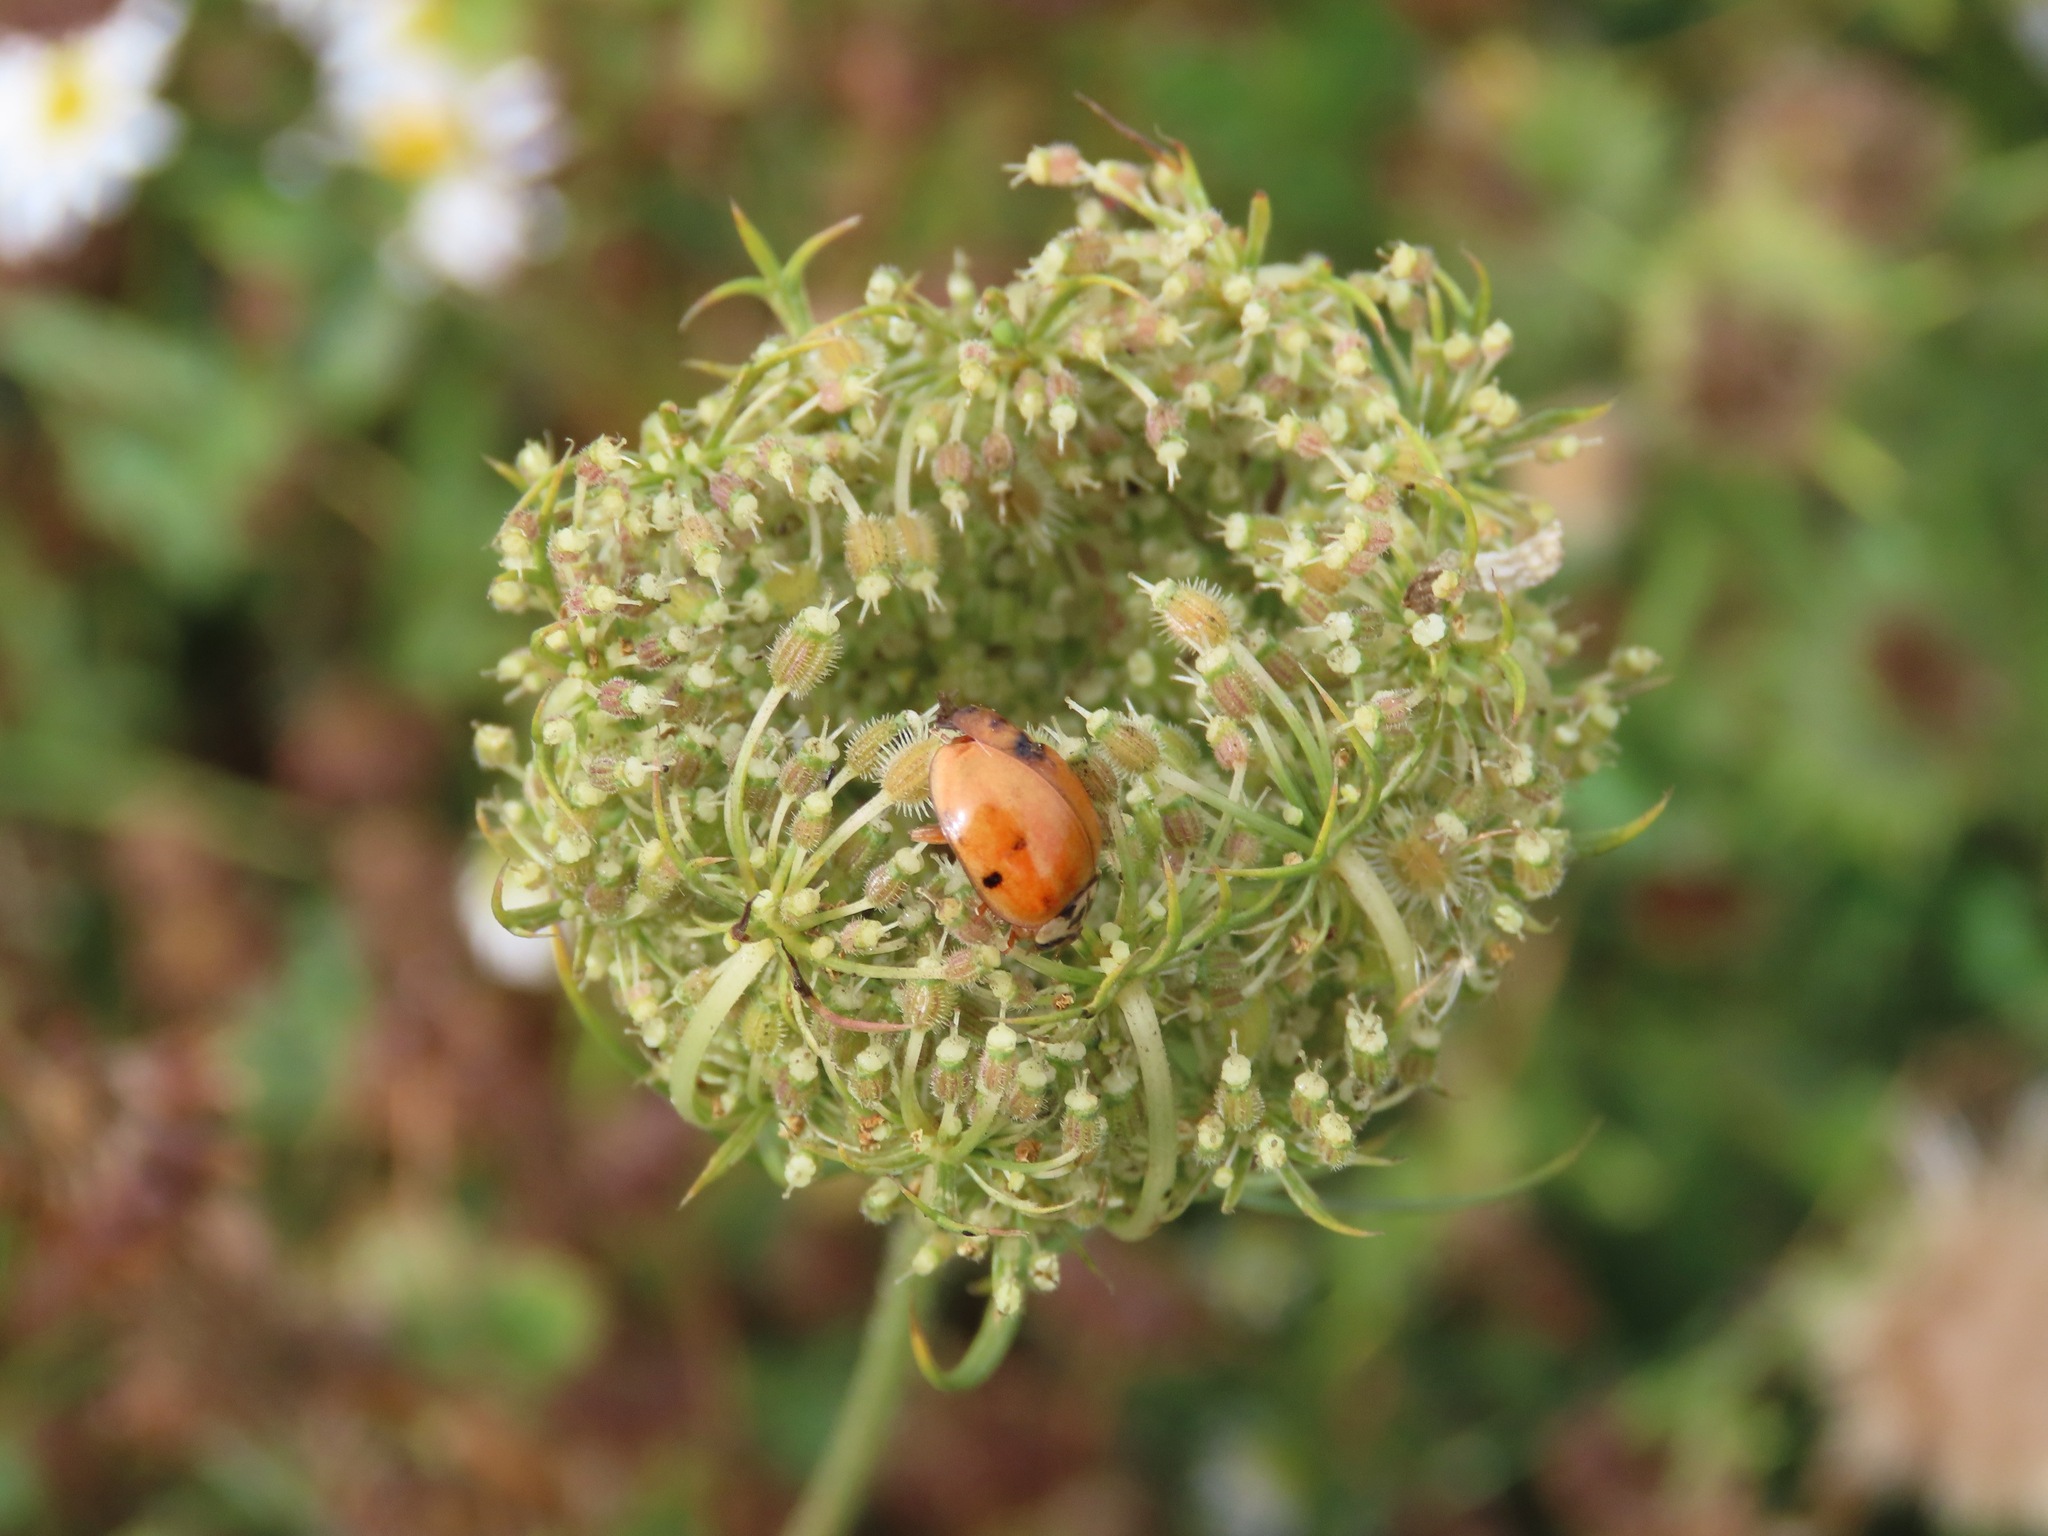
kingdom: Animalia
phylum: Arthropoda
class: Insecta
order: Coleoptera
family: Coccinellidae
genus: Harmonia
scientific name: Harmonia axyridis
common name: Harlequin ladybird
